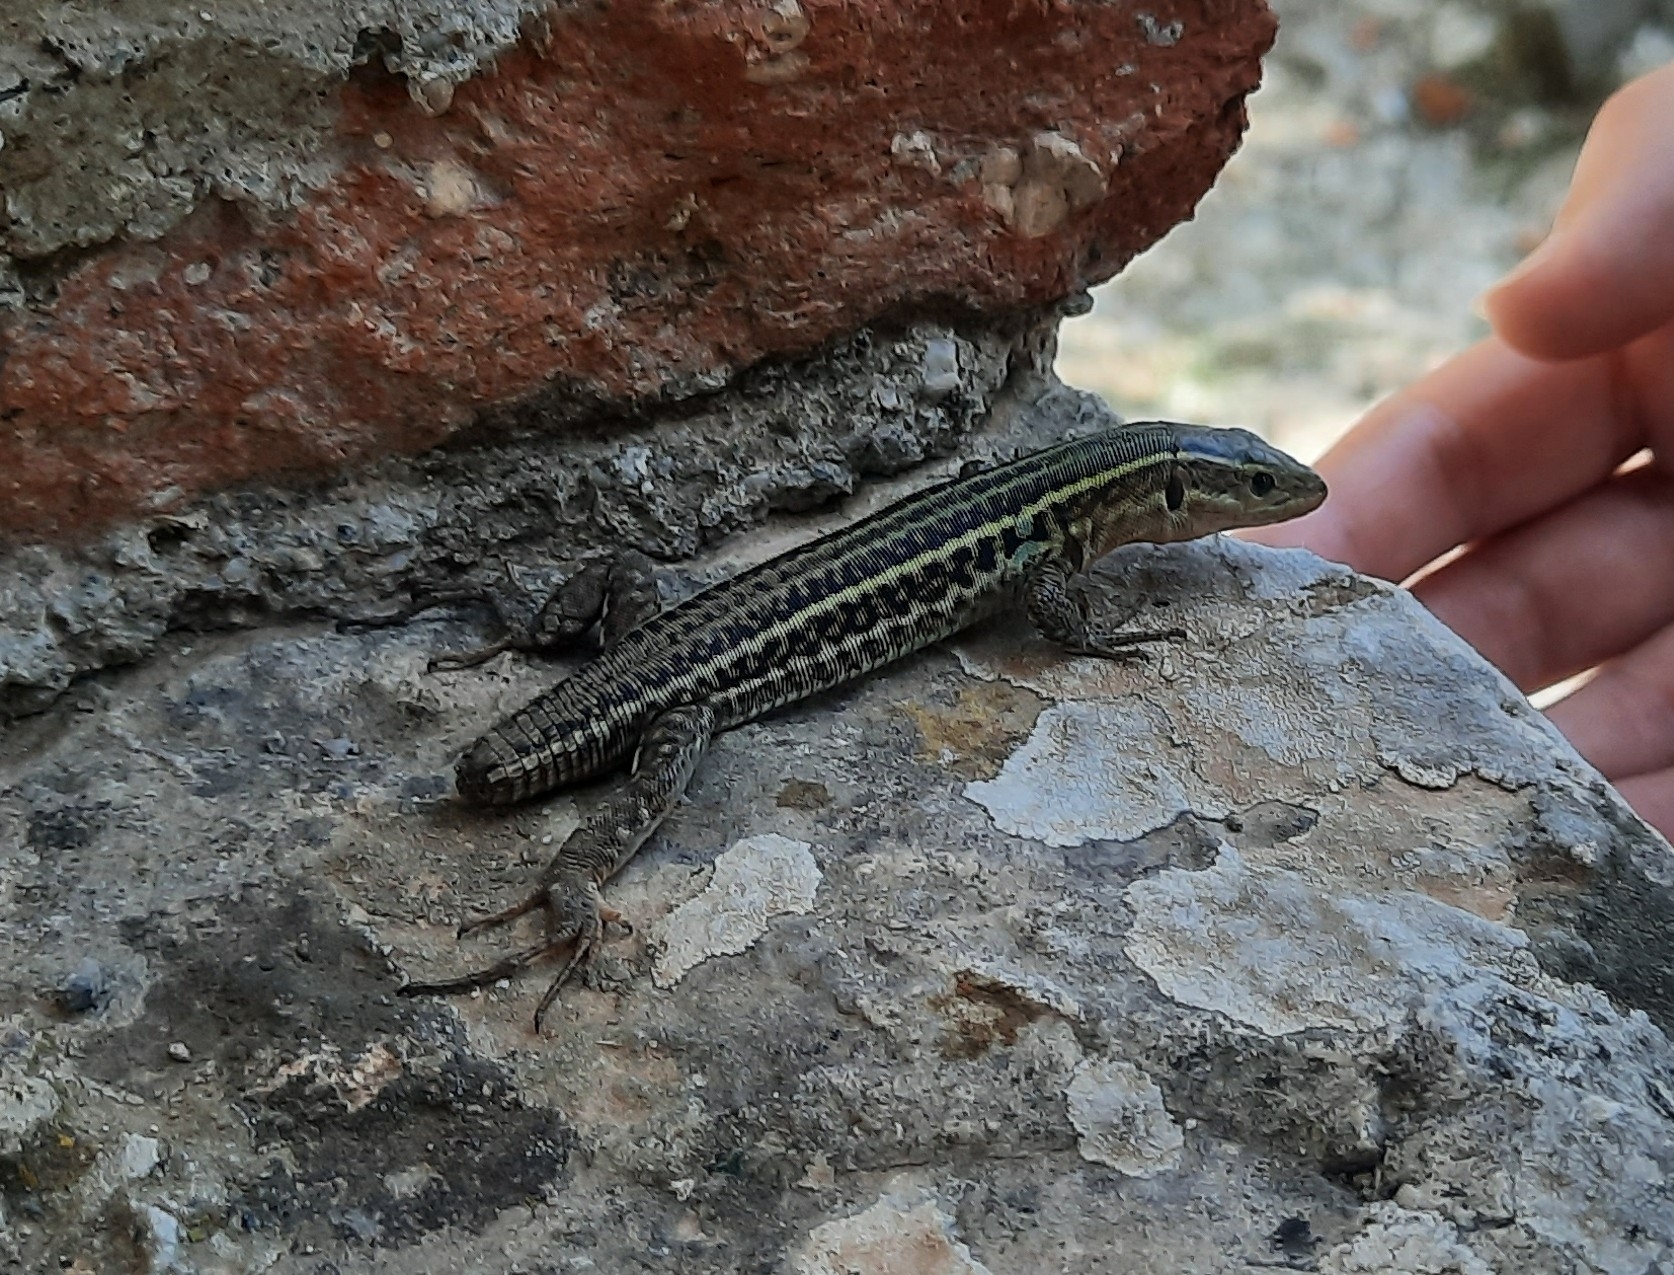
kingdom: Animalia
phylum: Chordata
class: Squamata
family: Lacertidae
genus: Podarcis
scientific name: Podarcis peloponnesiacus
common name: Peloponnese wall lizard
